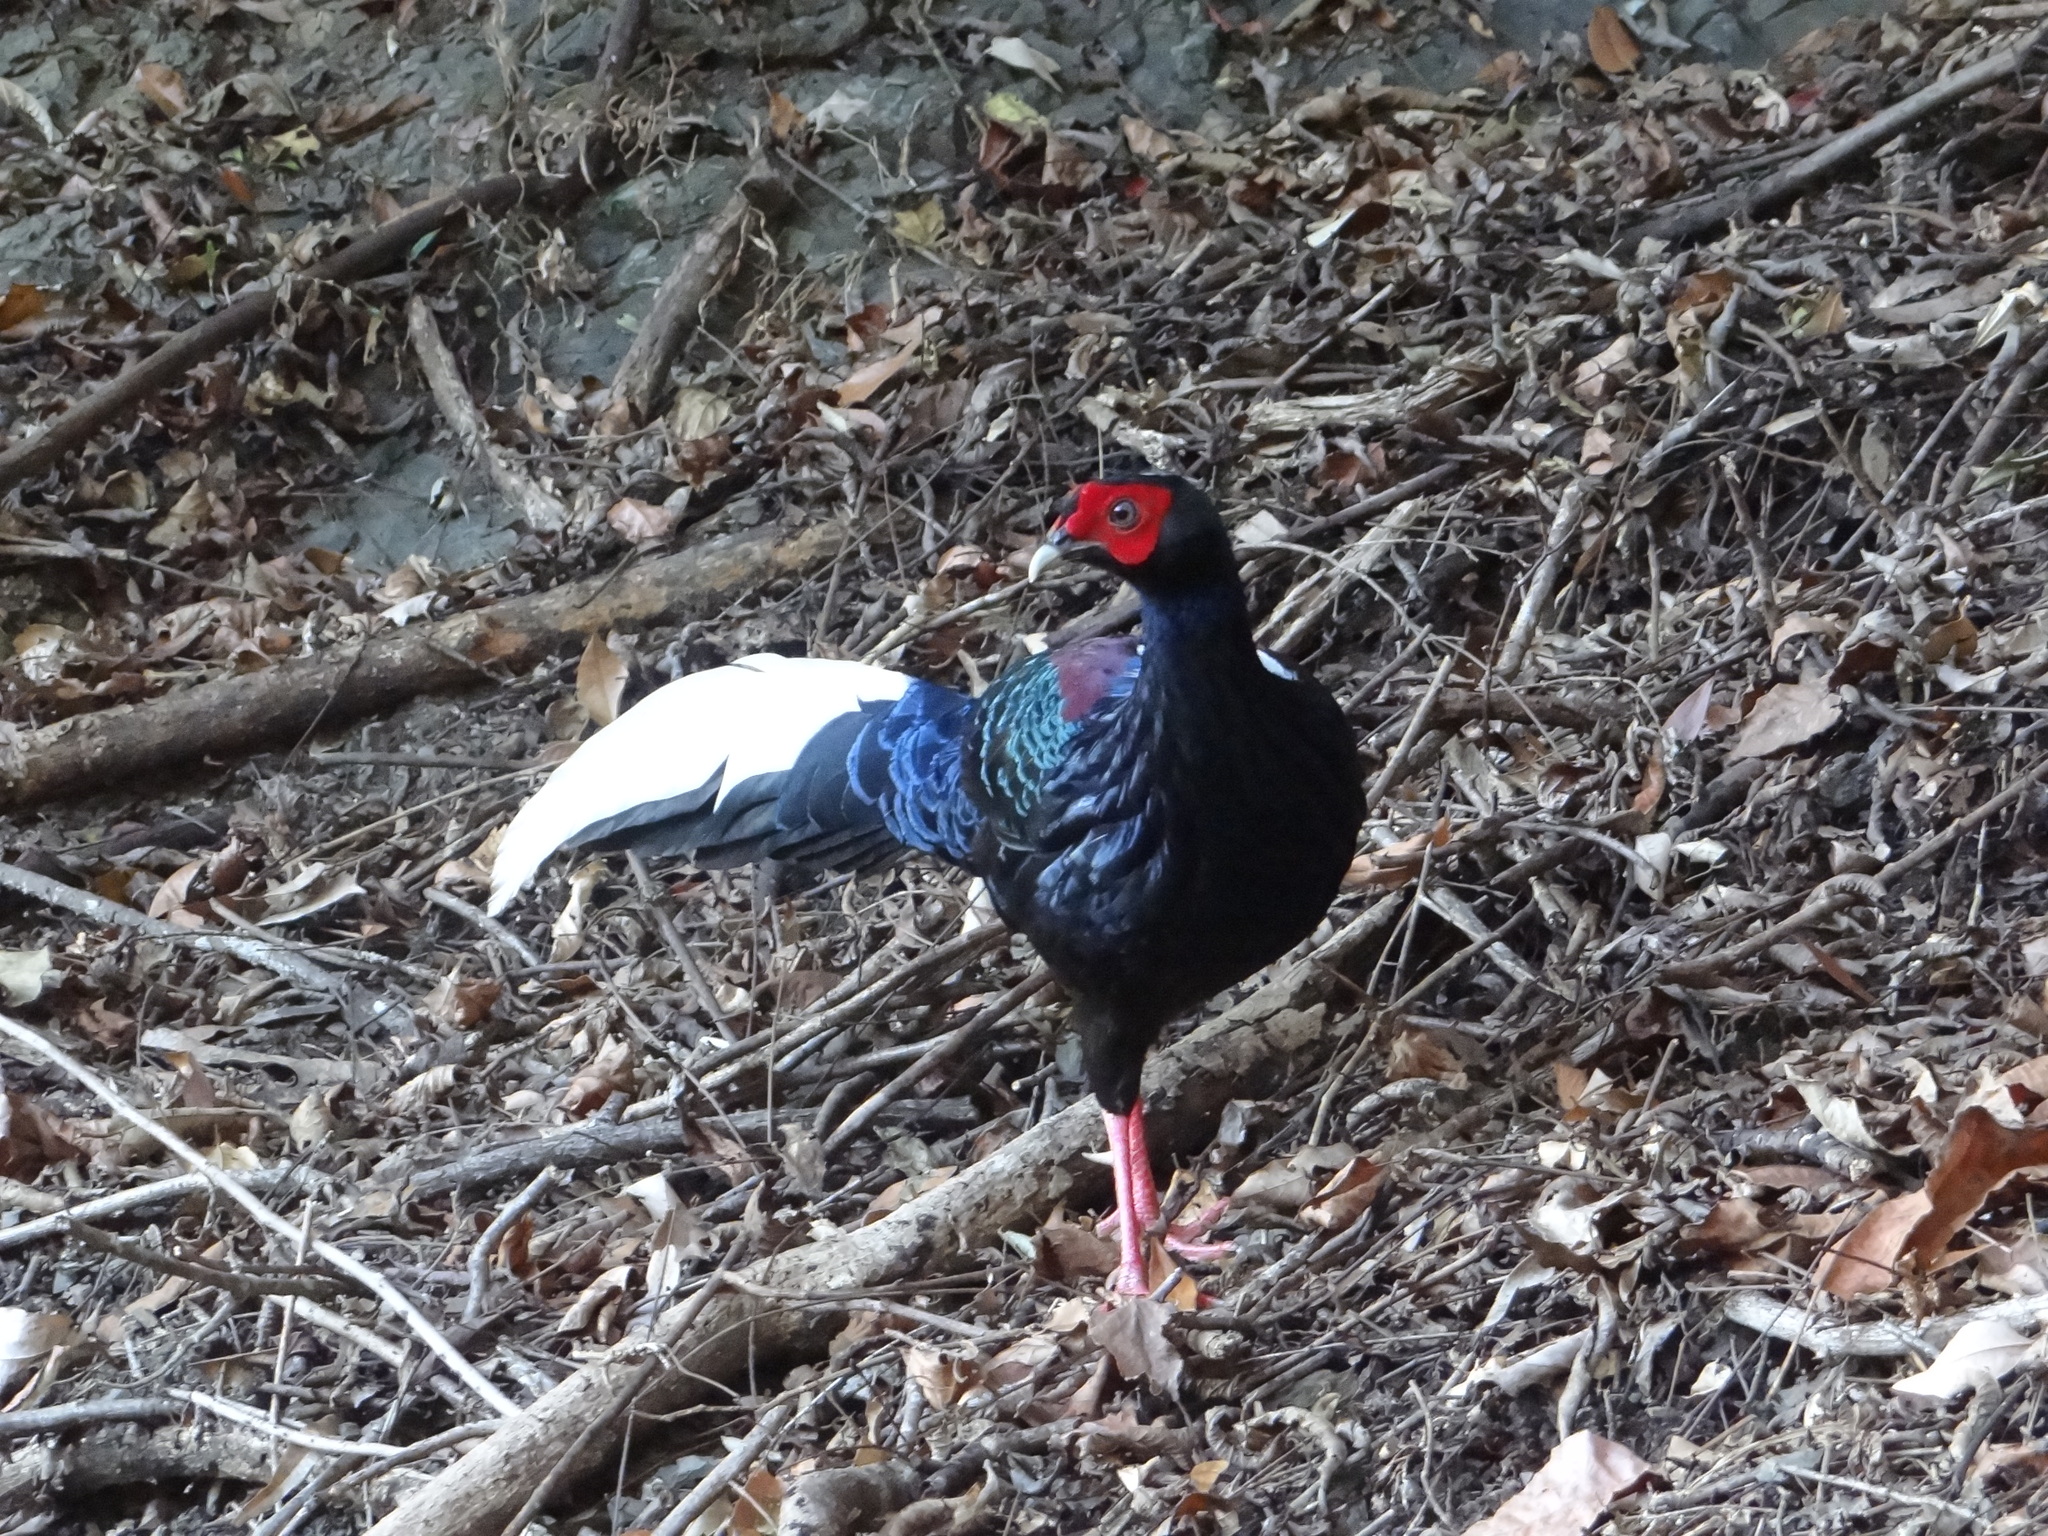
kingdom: Animalia
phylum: Chordata
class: Aves
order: Galliformes
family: Phasianidae
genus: Lophura
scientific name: Lophura swinhoii
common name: Swinhoe's pheasant
